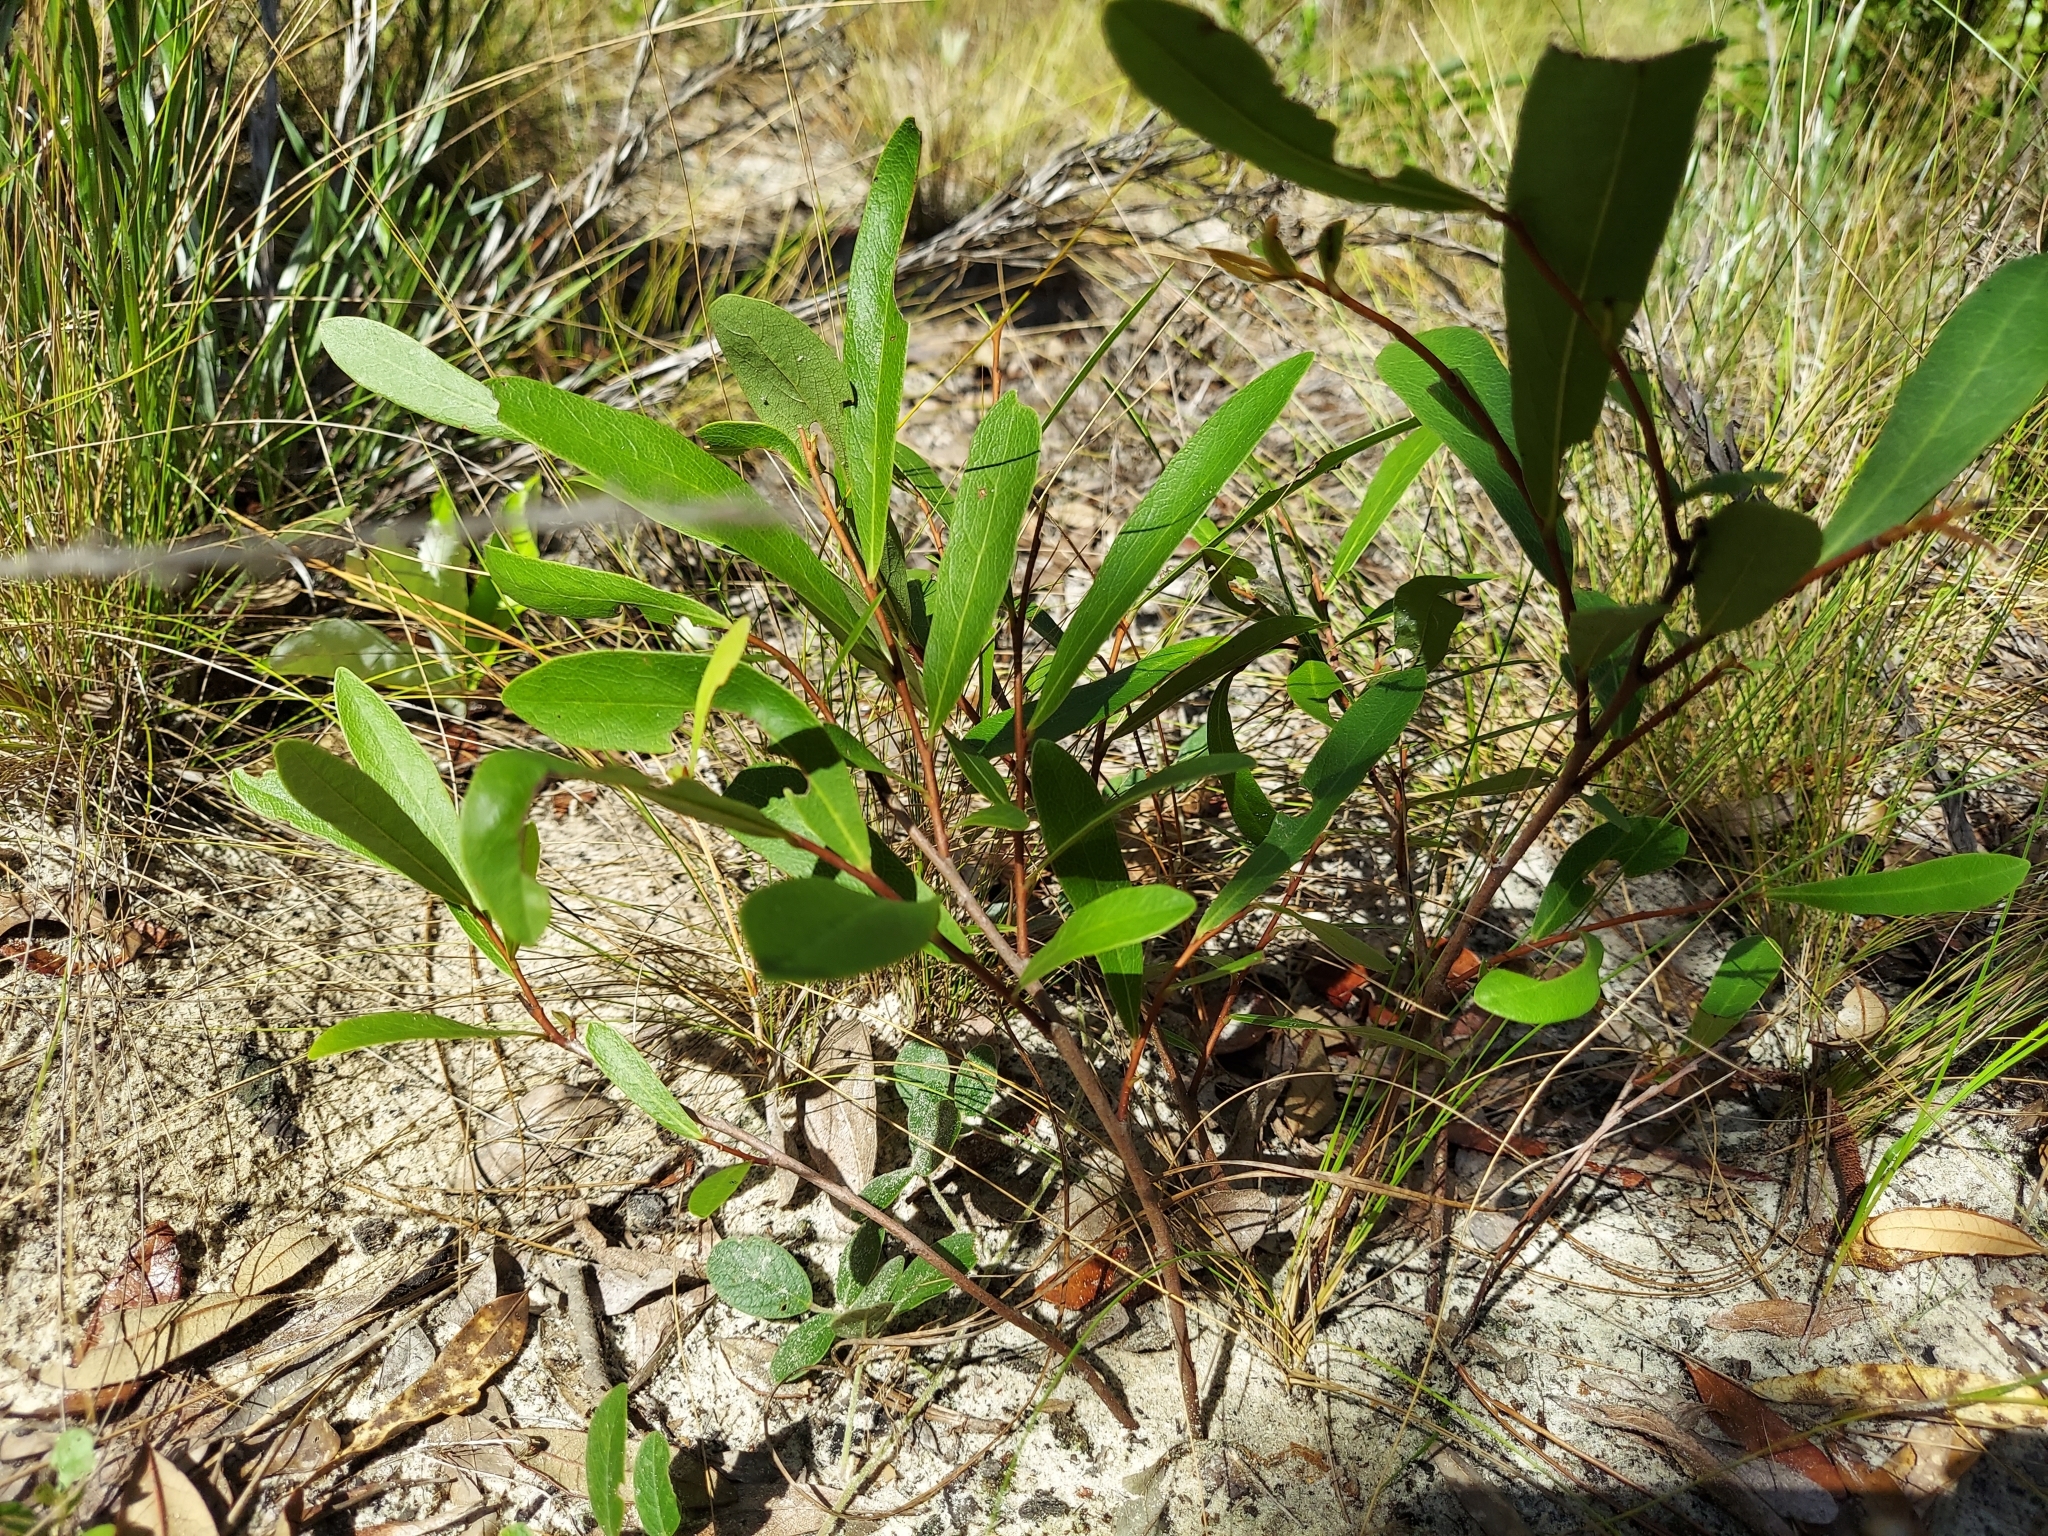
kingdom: Plantae
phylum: Tracheophyta
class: Magnoliopsida
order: Magnoliales
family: Annonaceae
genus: Asimina
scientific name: Asimina pygmaea
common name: Dwarf pawpaw
